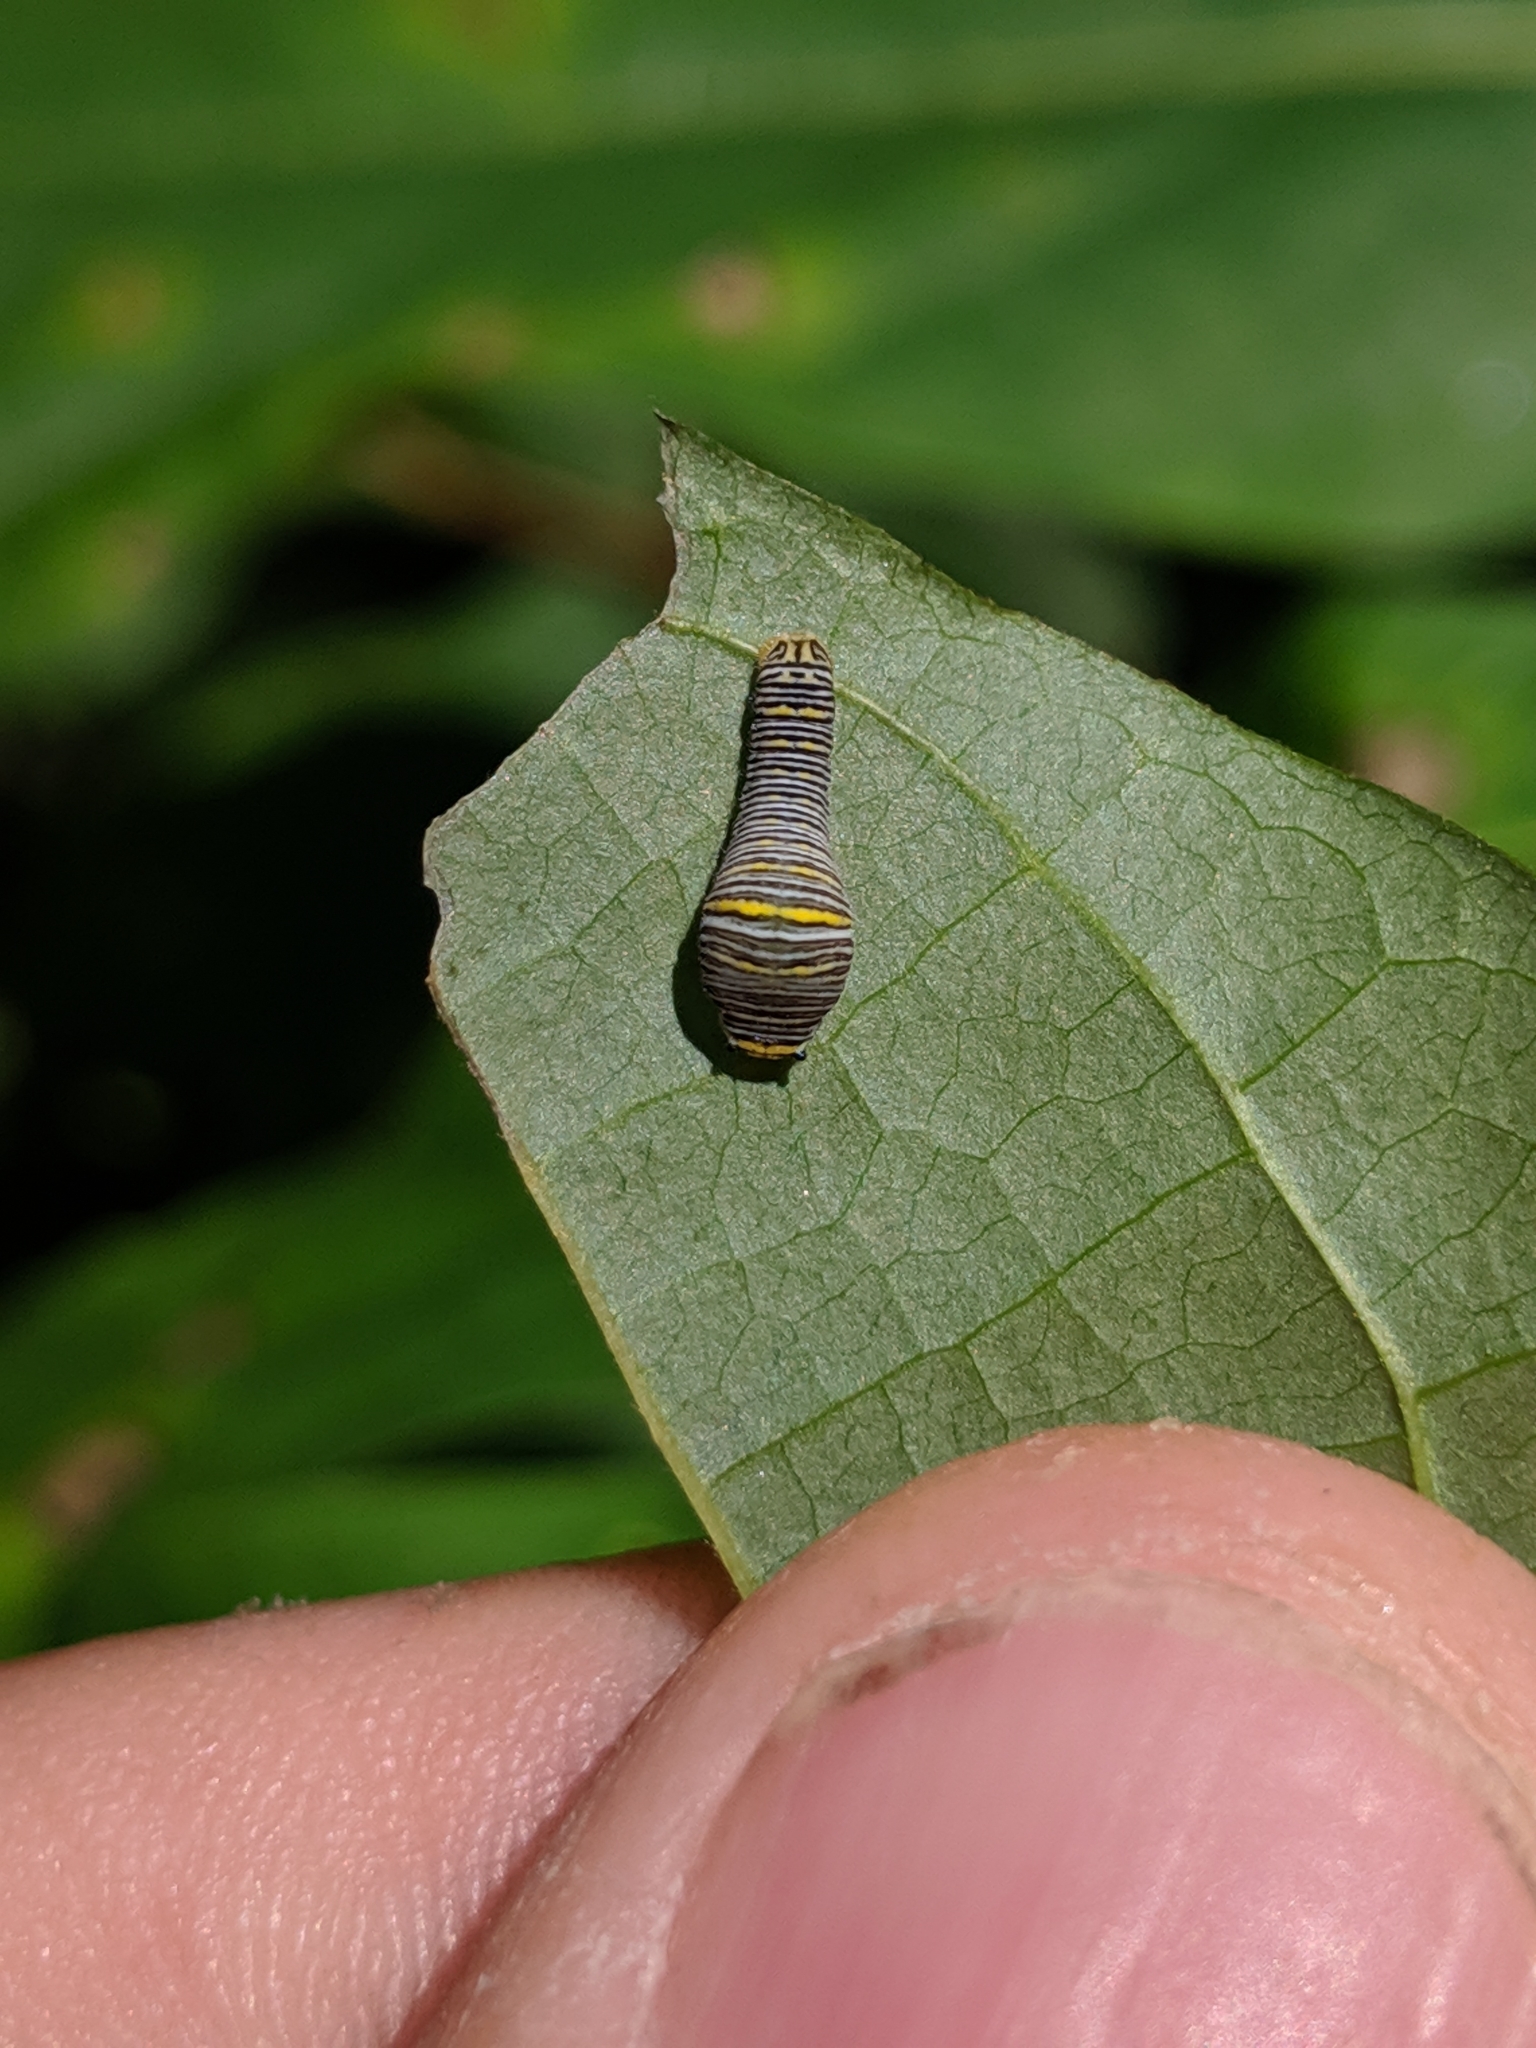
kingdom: Animalia
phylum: Arthropoda
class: Insecta
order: Lepidoptera
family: Papilionidae
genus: Protographium
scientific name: Protographium marcellus
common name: Zebra swallowtail
